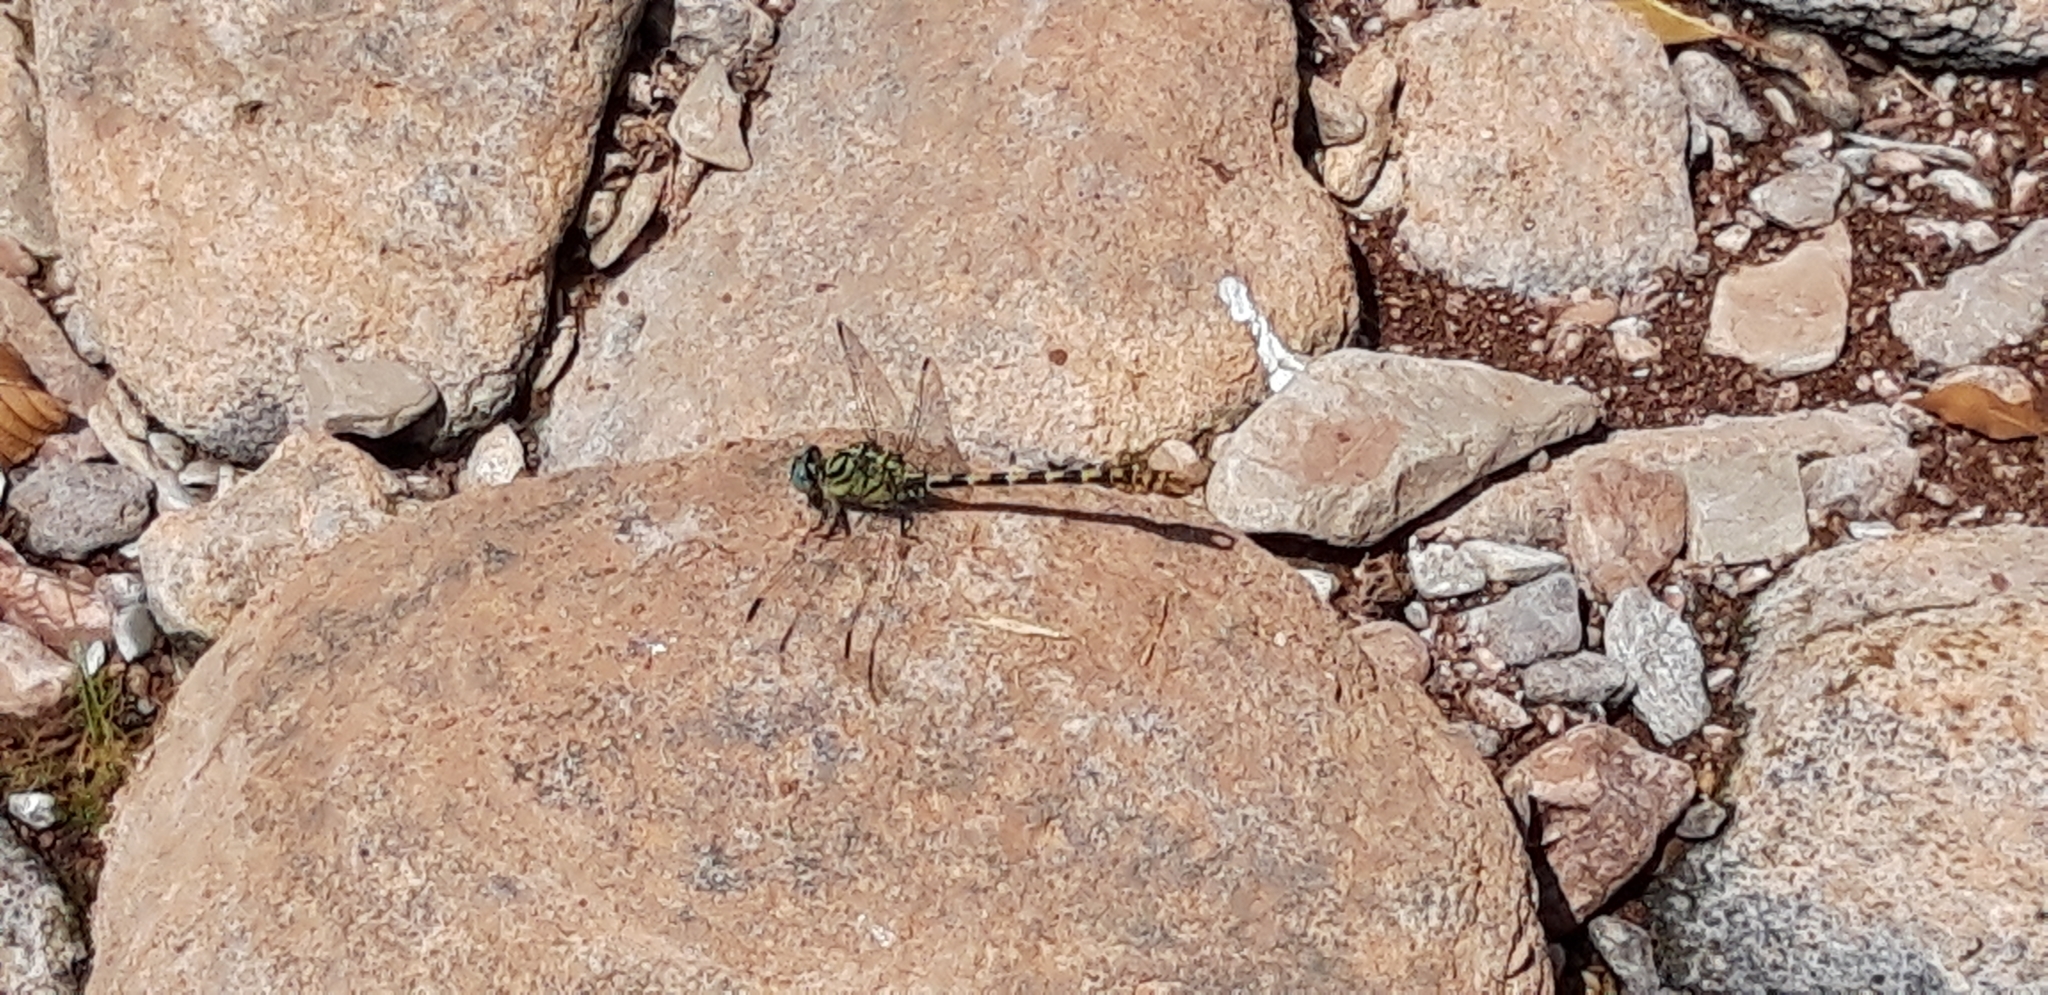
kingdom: Animalia
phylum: Arthropoda
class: Insecta
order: Odonata
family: Gomphidae
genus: Onychogomphus
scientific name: Onychogomphus forcipatus
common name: Small pincertail
